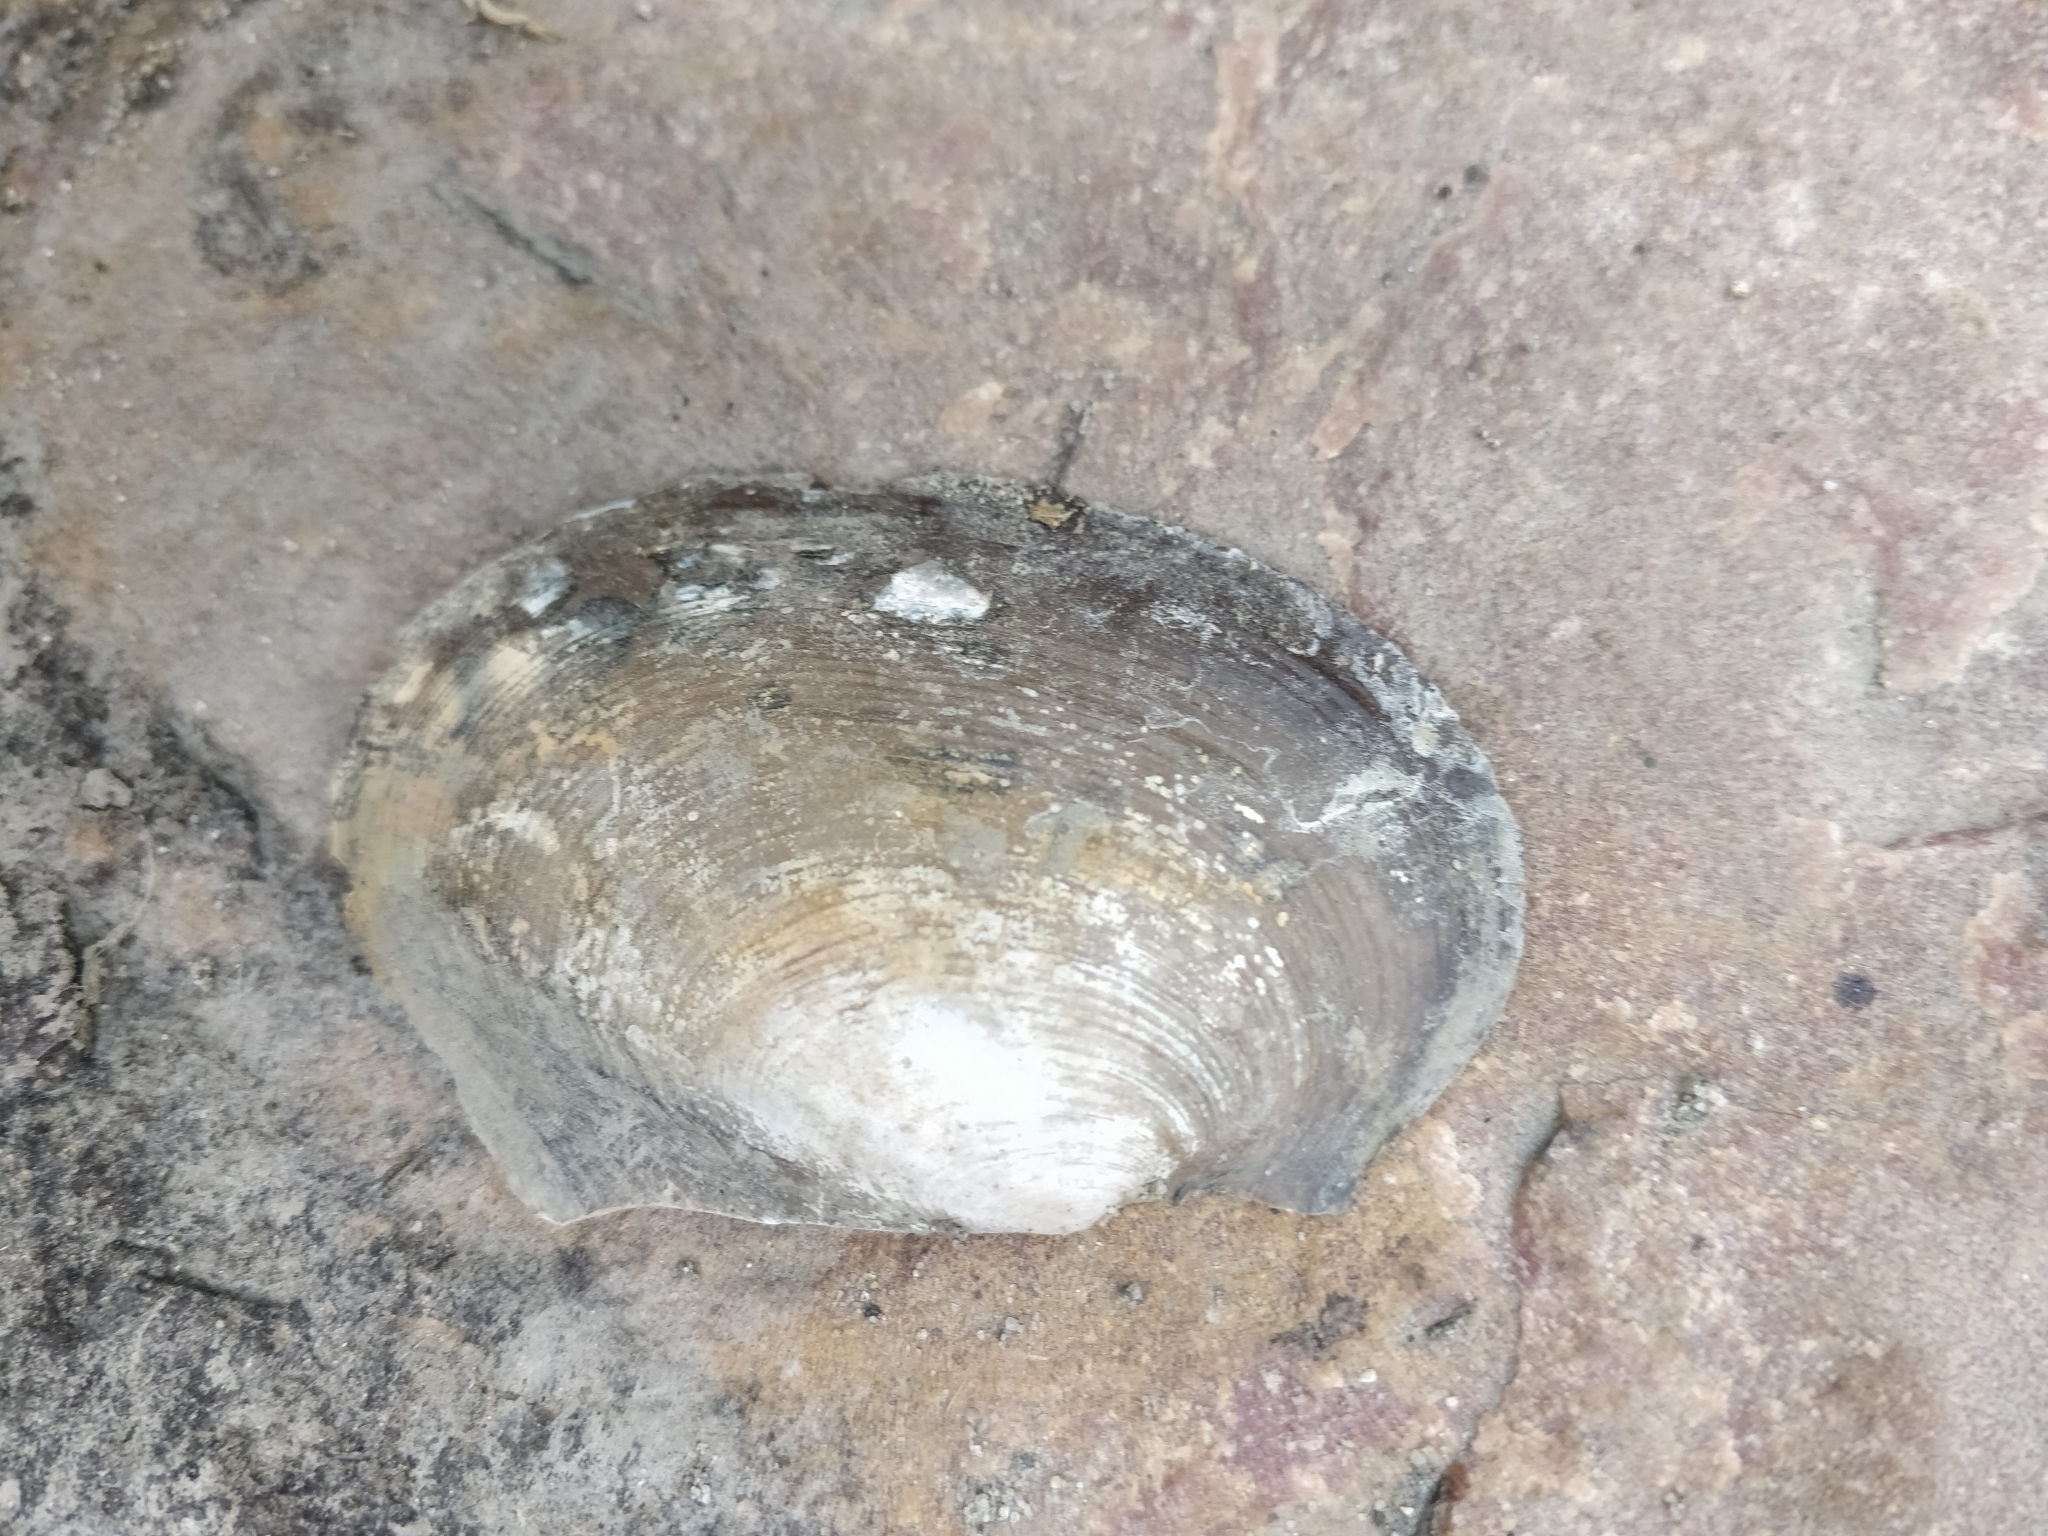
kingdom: Animalia
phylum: Mollusca
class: Bivalvia
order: Unionida
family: Unionidae
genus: Potamilus
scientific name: Potamilus ohiensis
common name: Pink papershell
